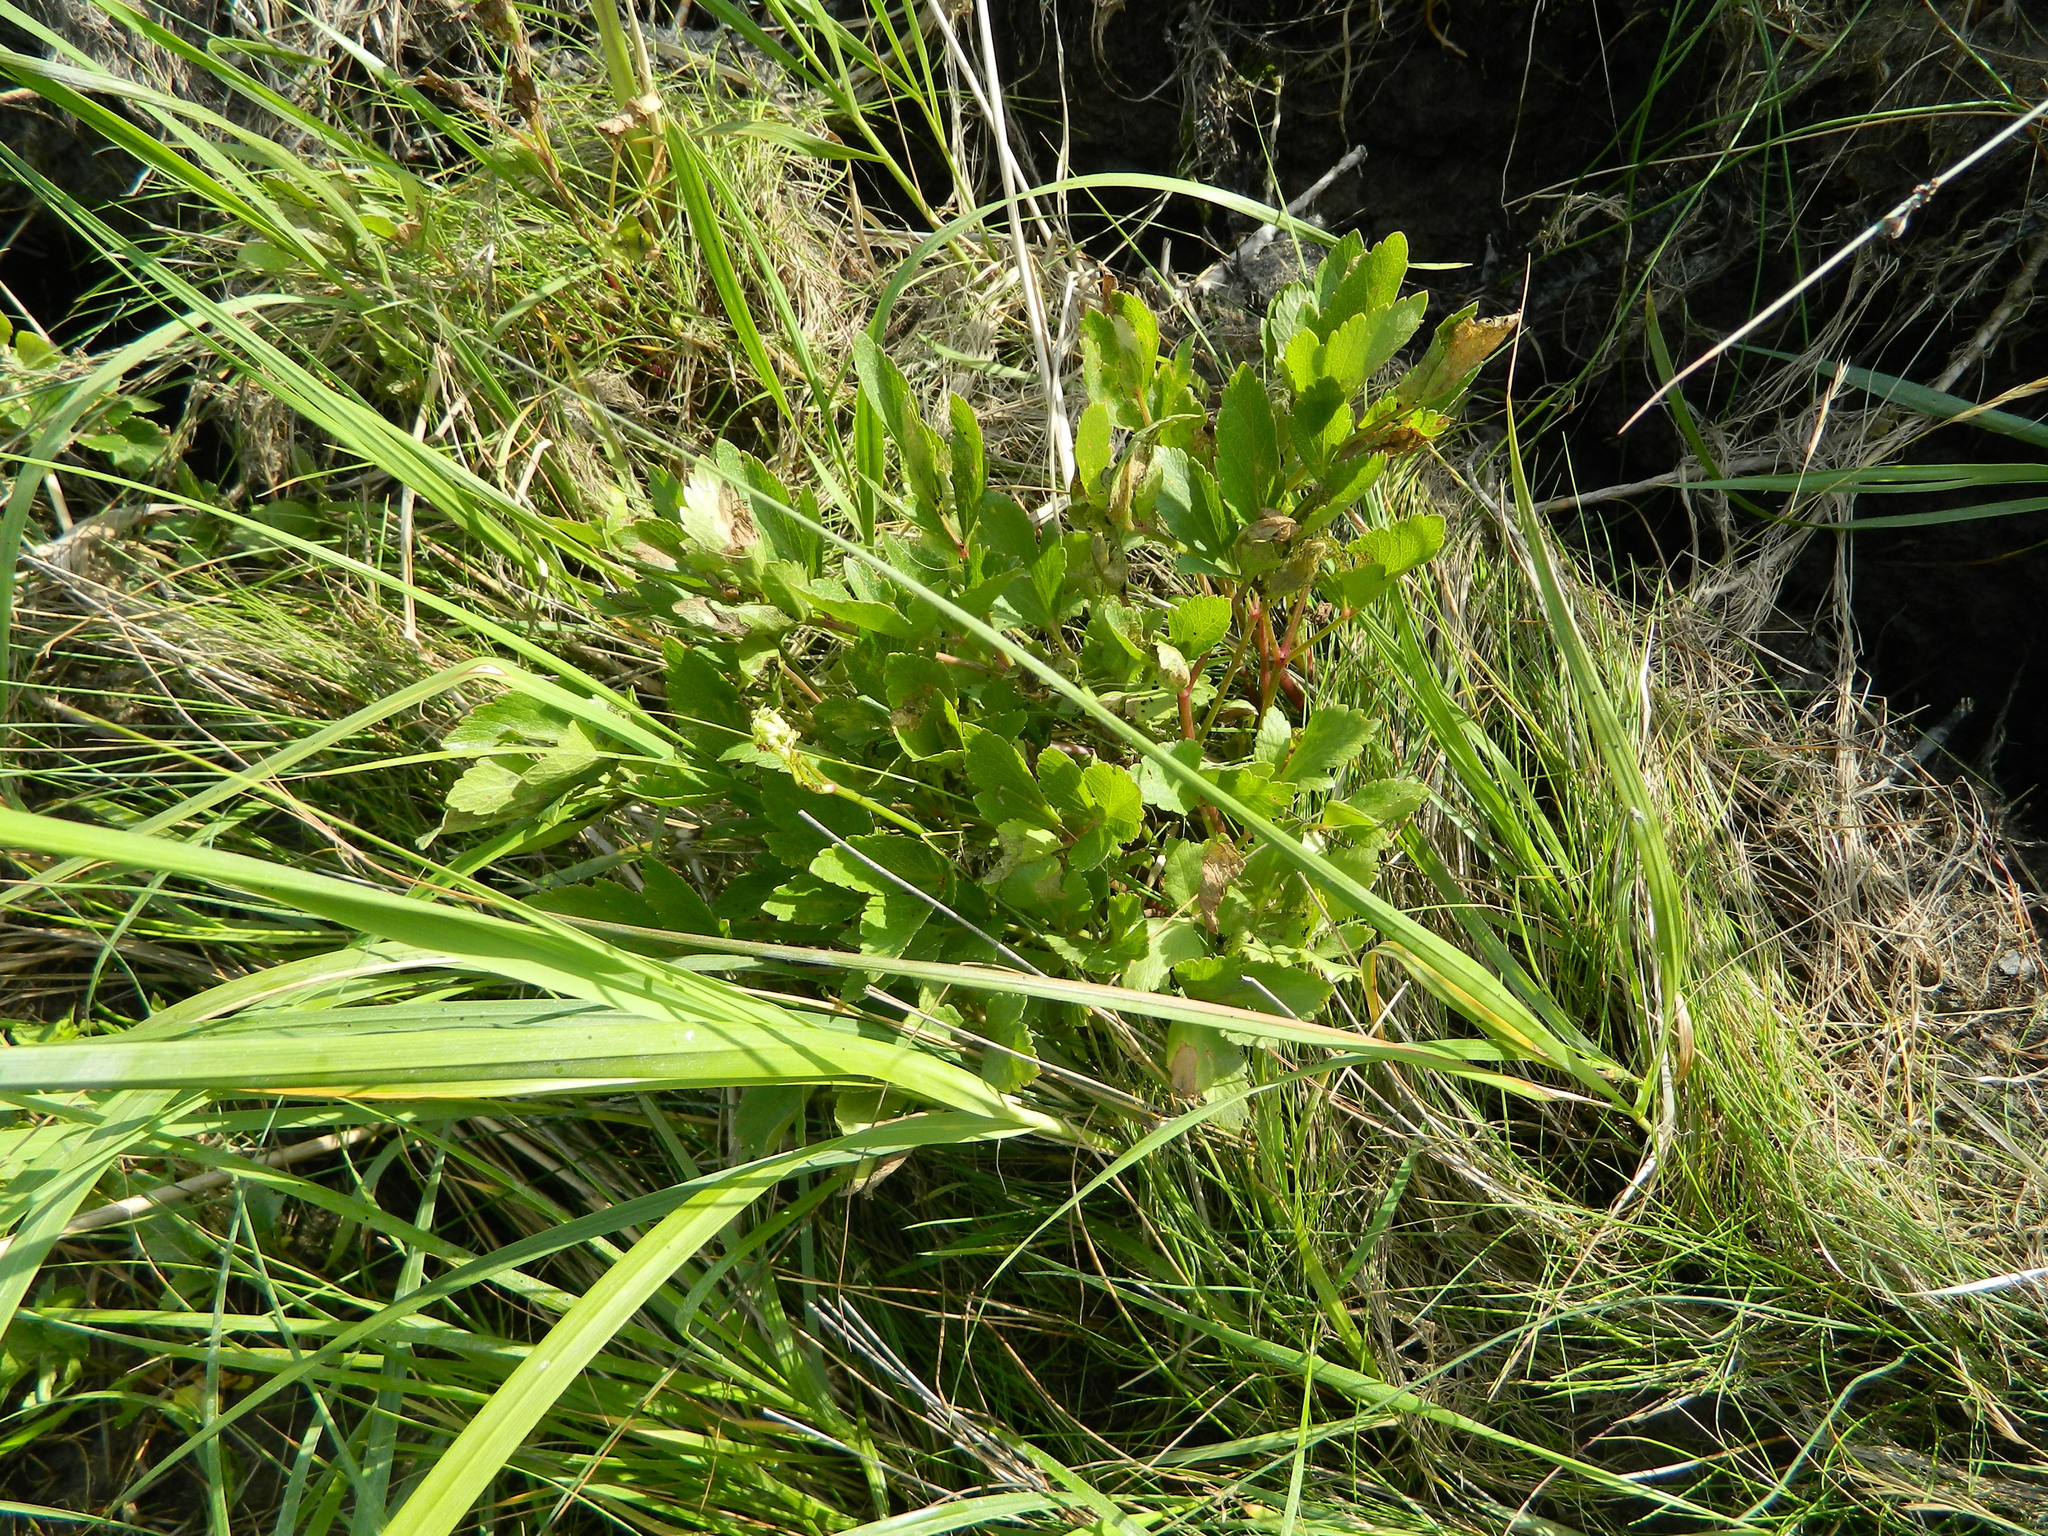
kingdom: Plantae
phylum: Tracheophyta
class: Magnoliopsida
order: Apiales
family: Apiaceae
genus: Ligusticum
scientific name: Ligusticum scothicum
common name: Beach lovage
